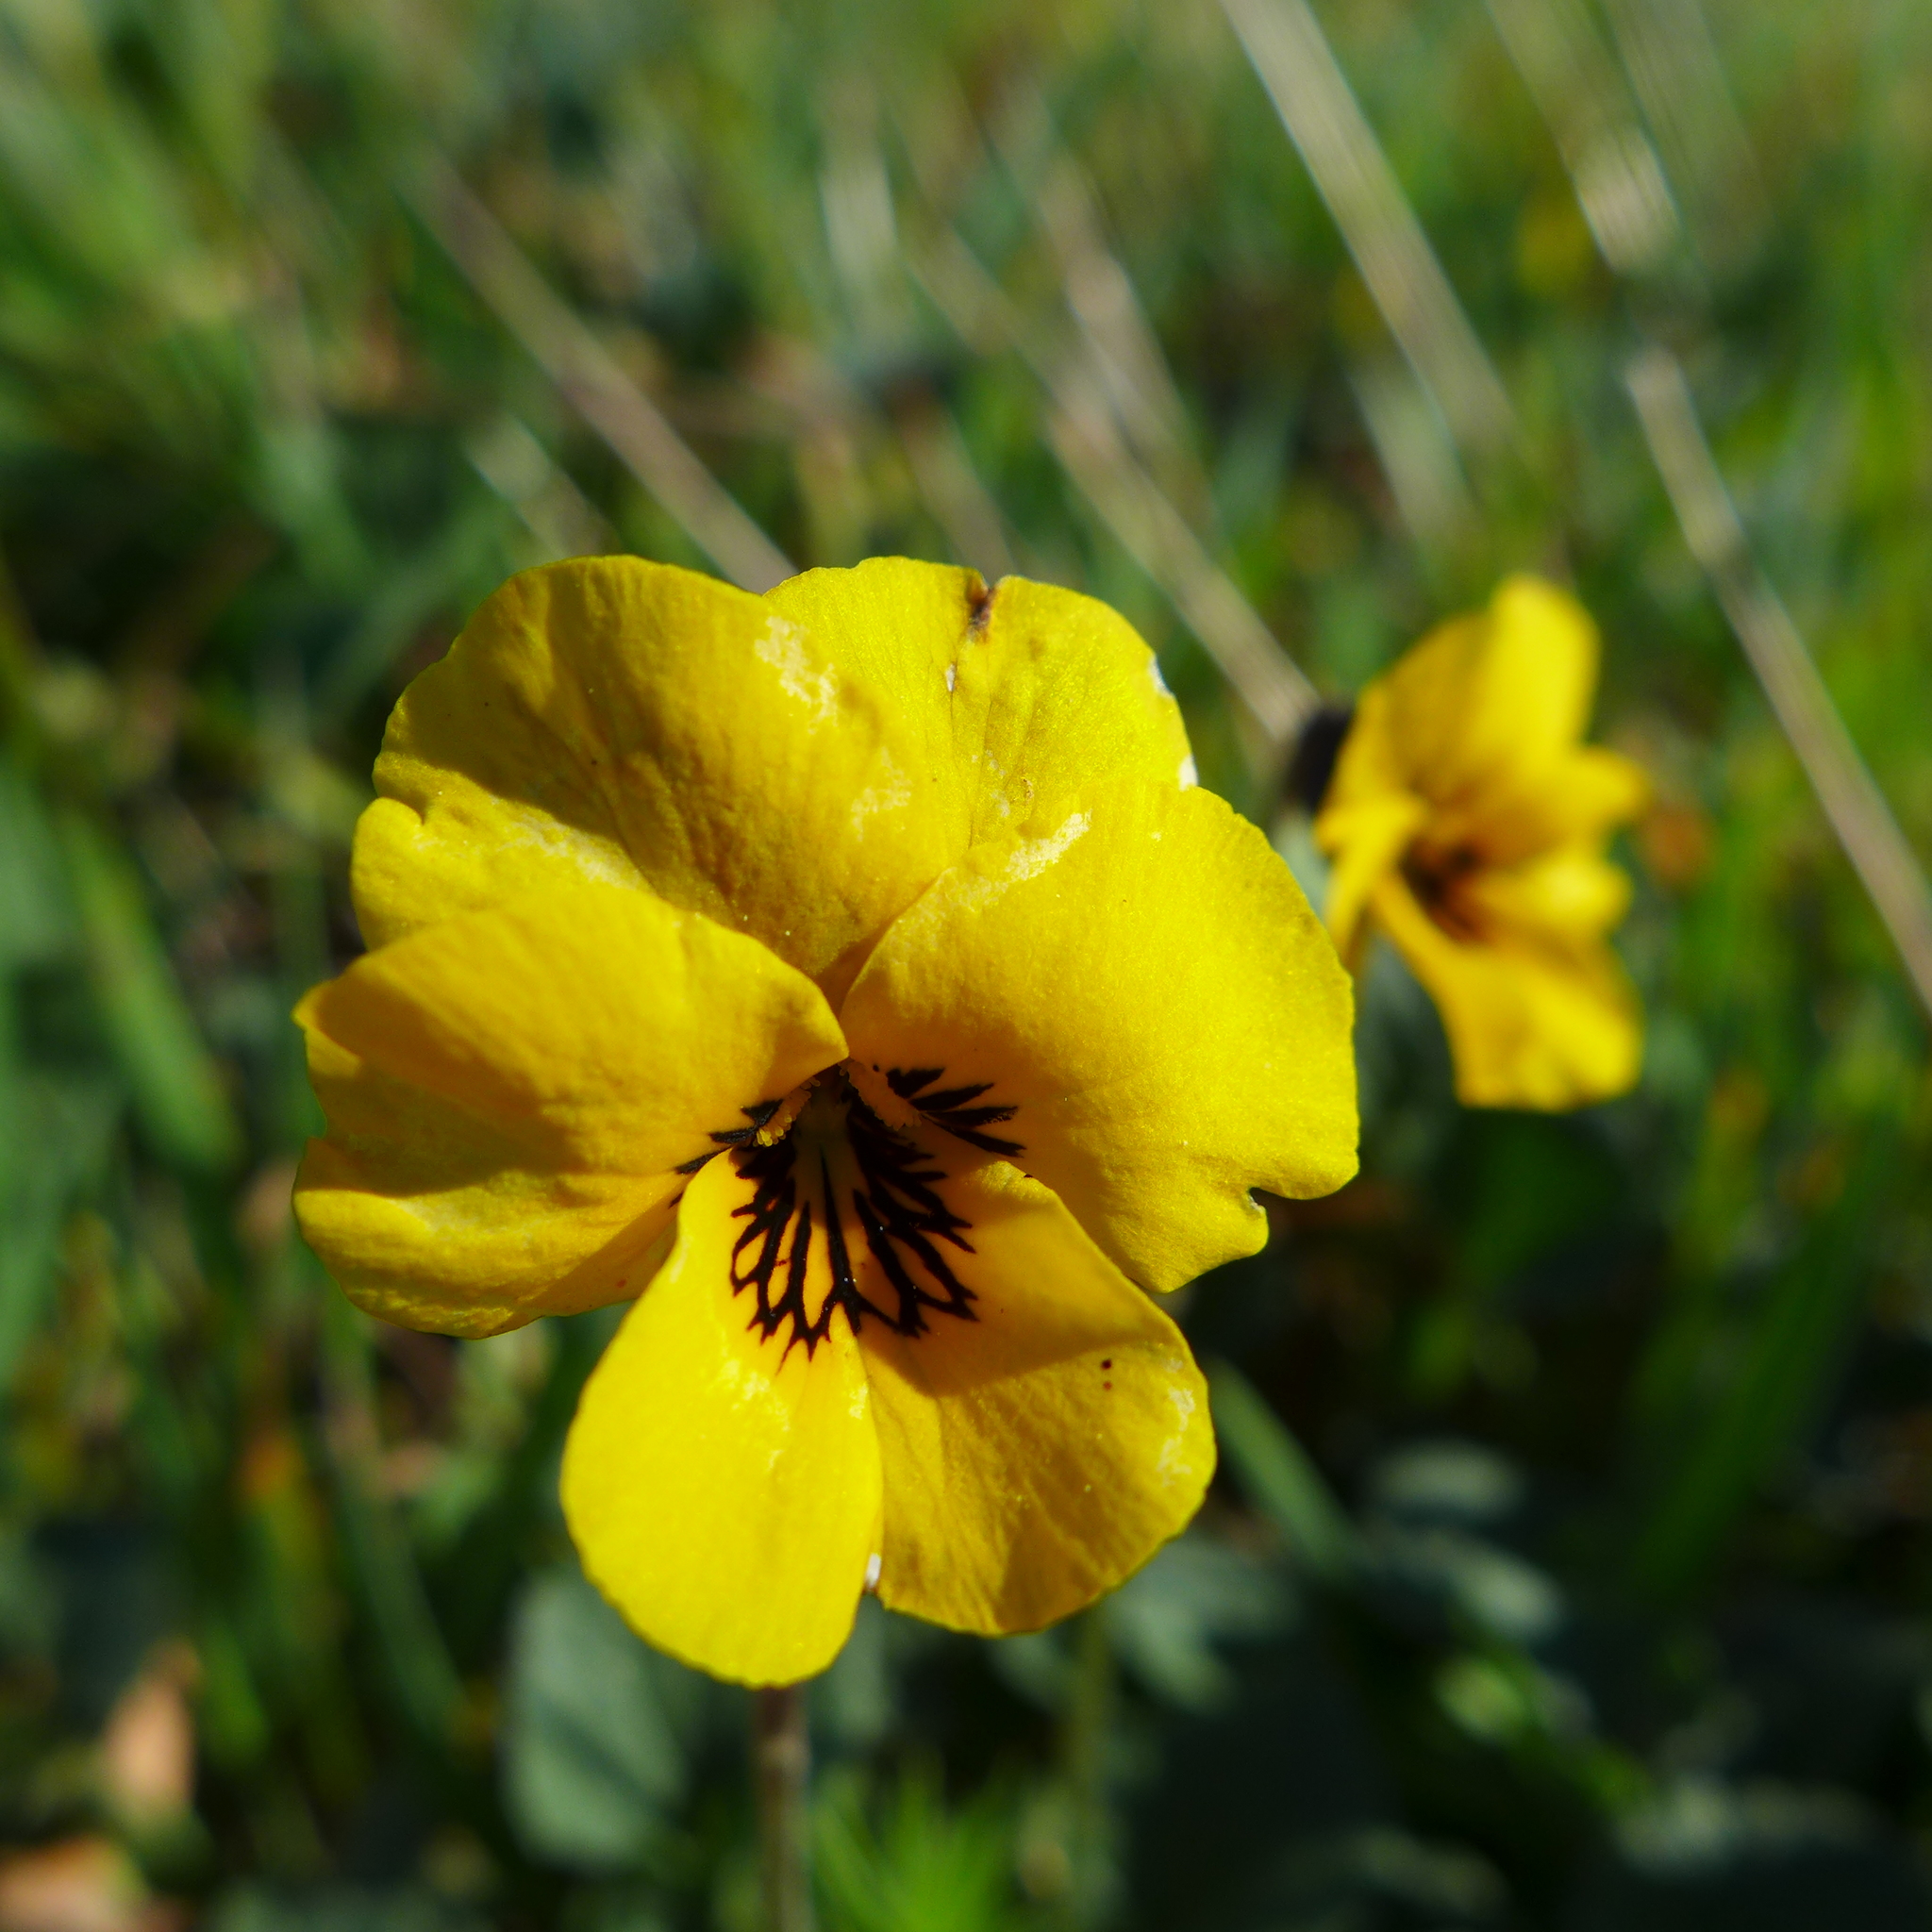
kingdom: Plantae
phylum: Tracheophyta
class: Magnoliopsida
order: Malpighiales
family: Violaceae
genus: Viola
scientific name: Viola pedunculata
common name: California golden violet
